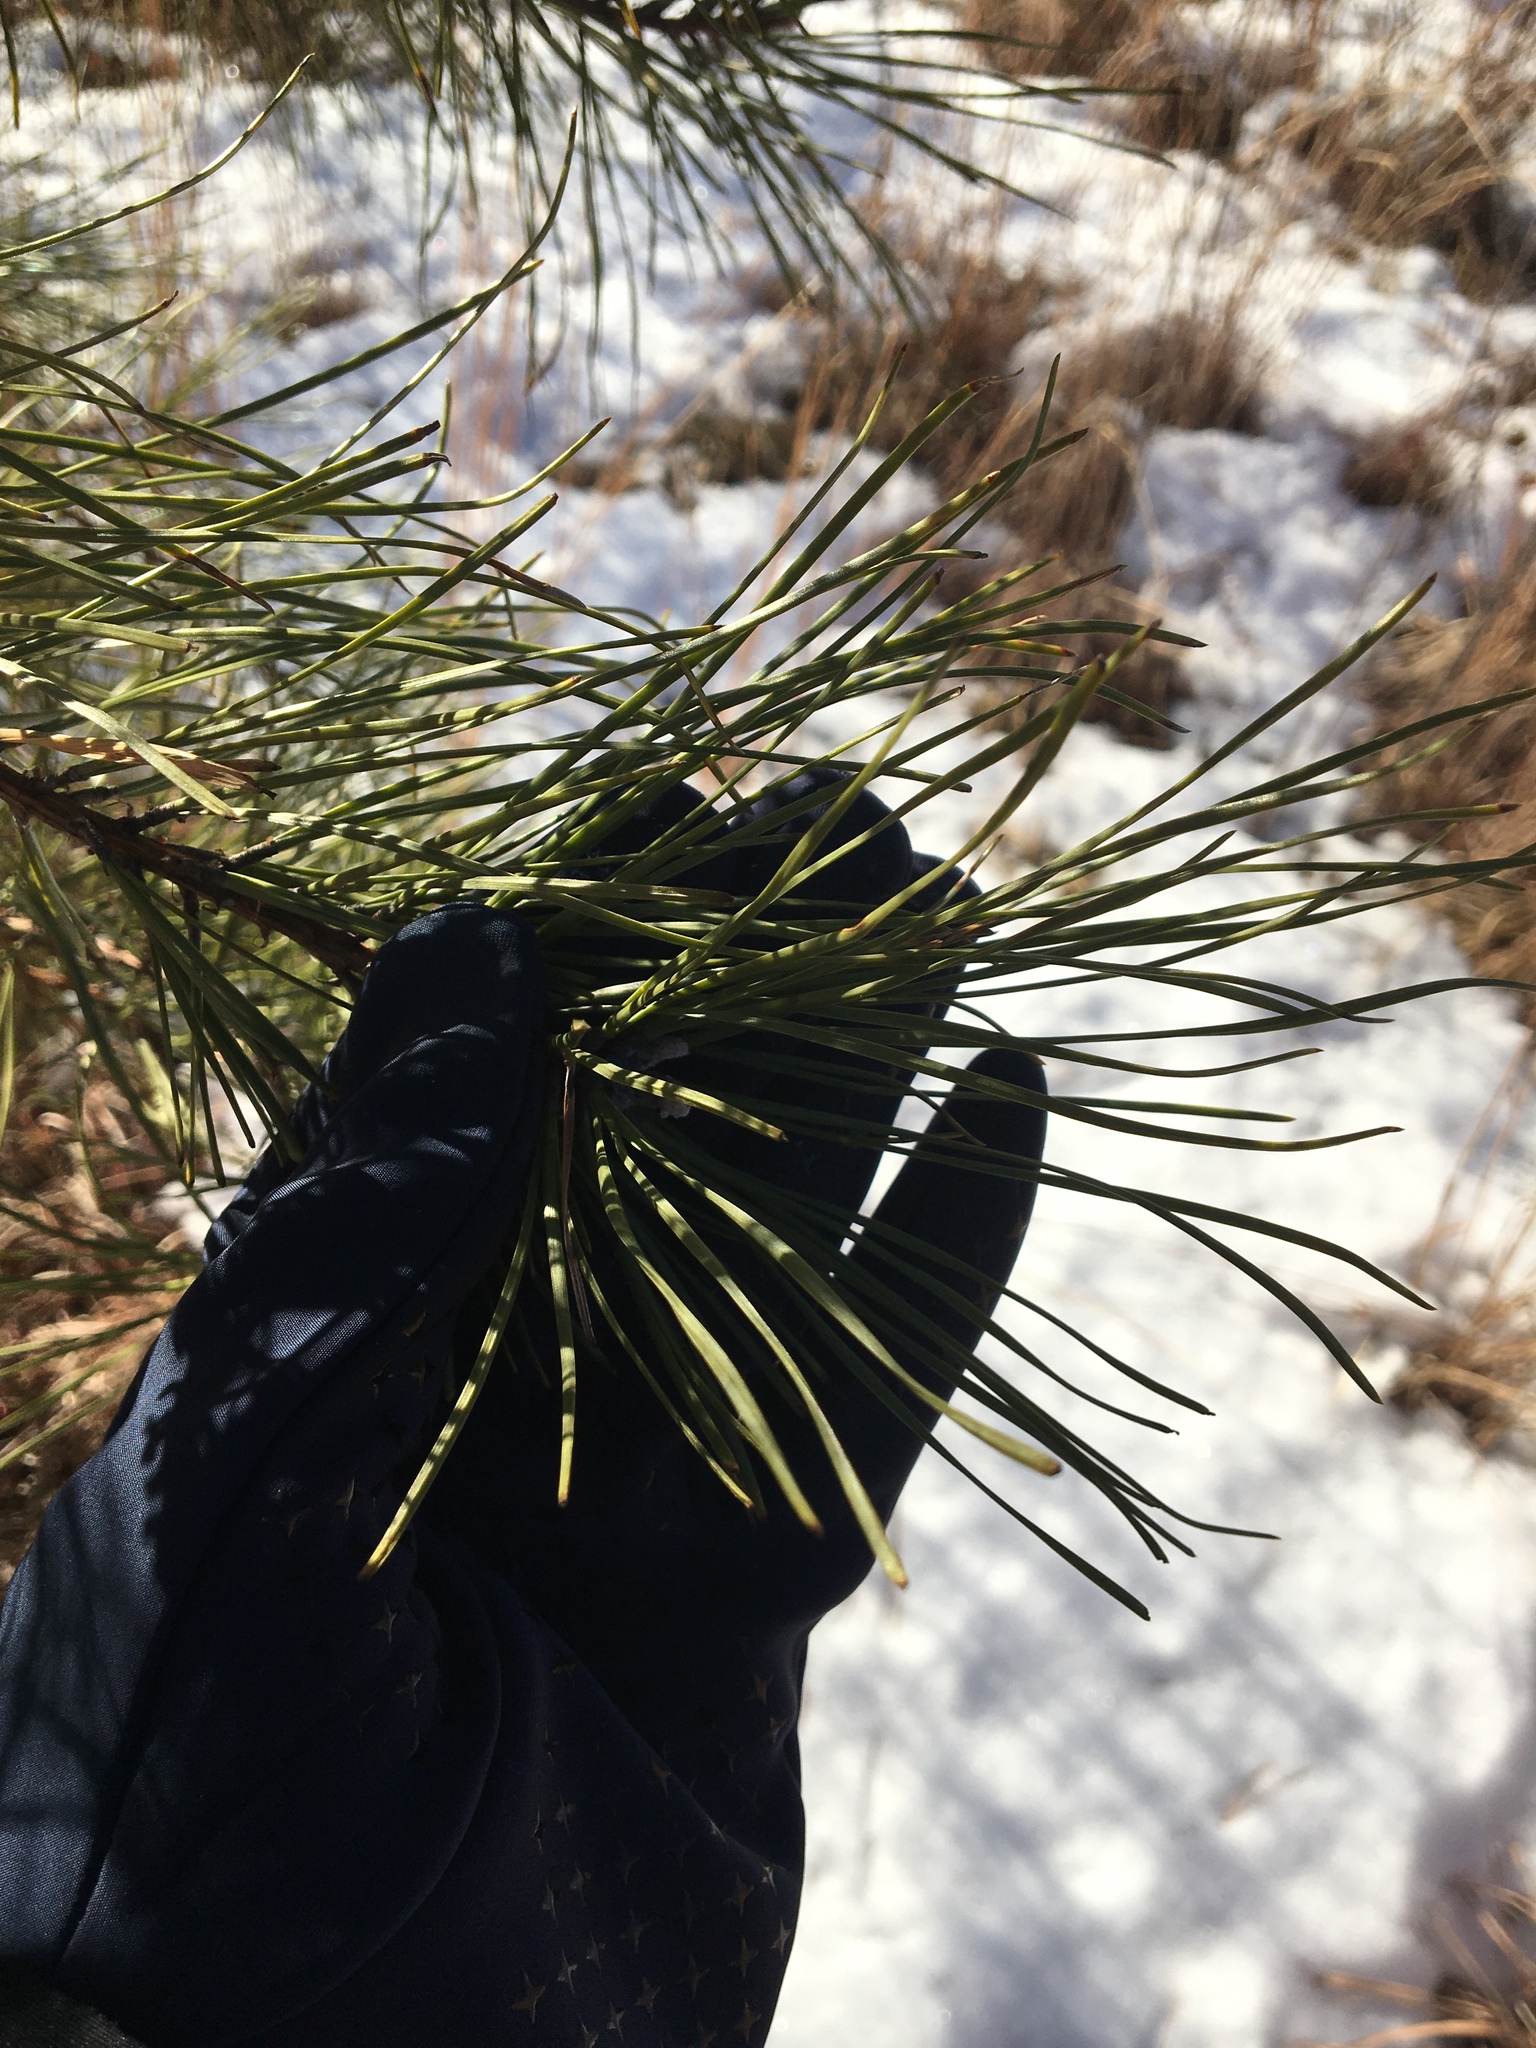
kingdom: Plantae
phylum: Tracheophyta
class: Pinopsida
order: Pinales
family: Pinaceae
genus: Pinus
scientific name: Pinus rigida
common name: Pitch pine
